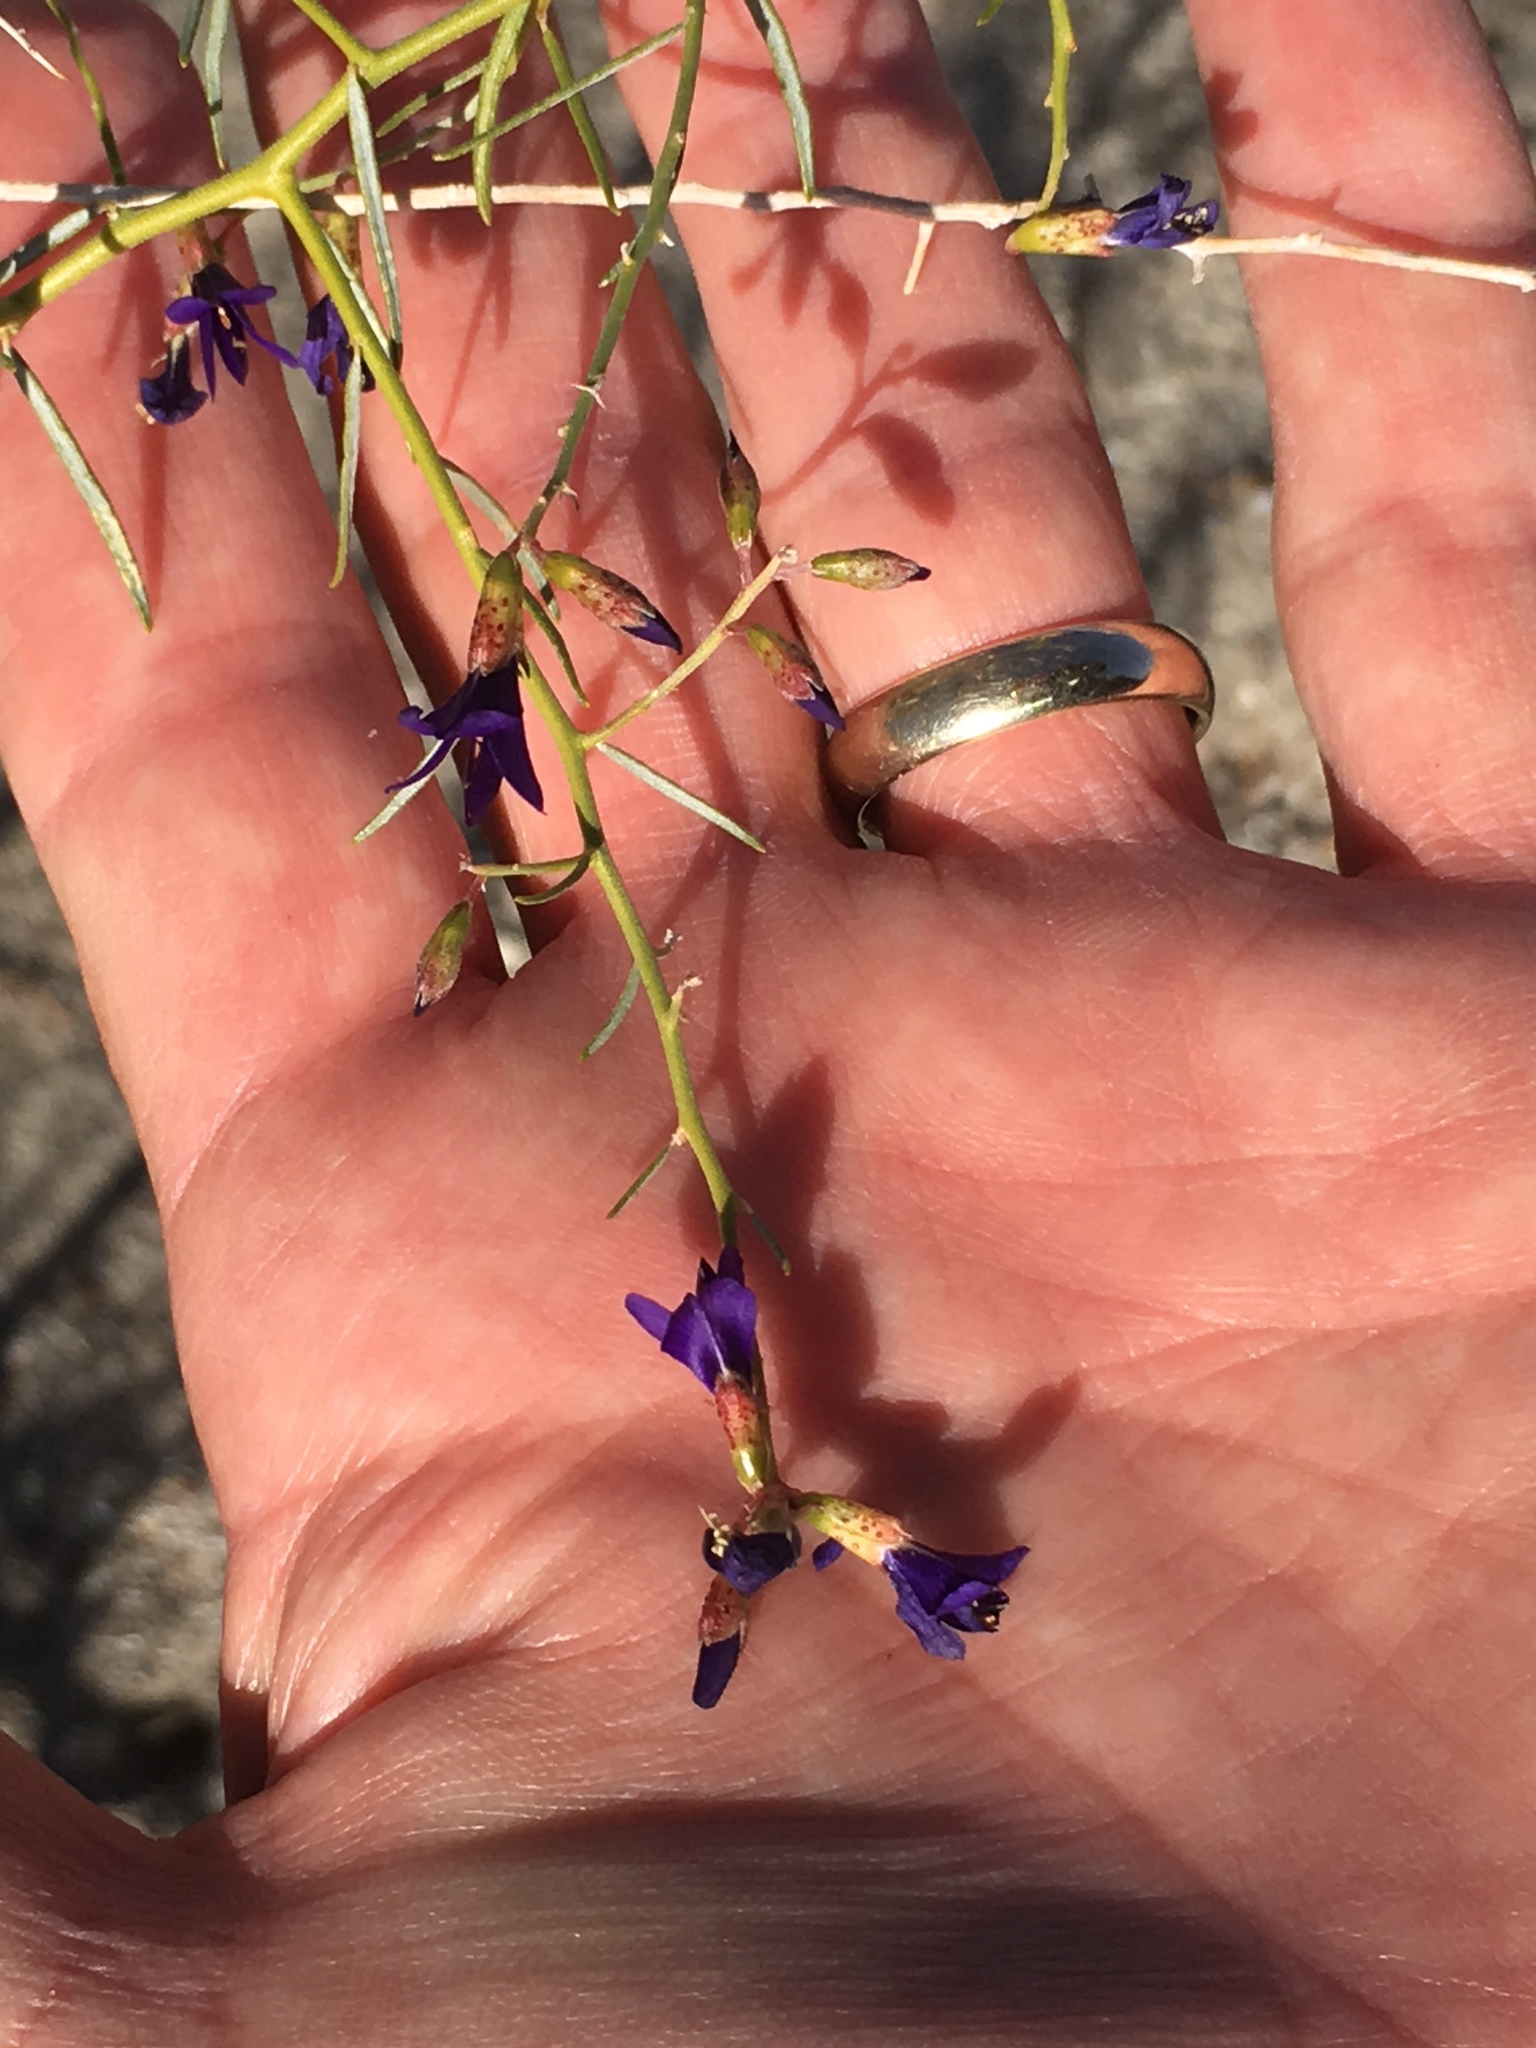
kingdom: Plantae
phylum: Tracheophyta
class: Magnoliopsida
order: Fabales
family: Fabaceae
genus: Psorothamnus
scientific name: Psorothamnus schottii
